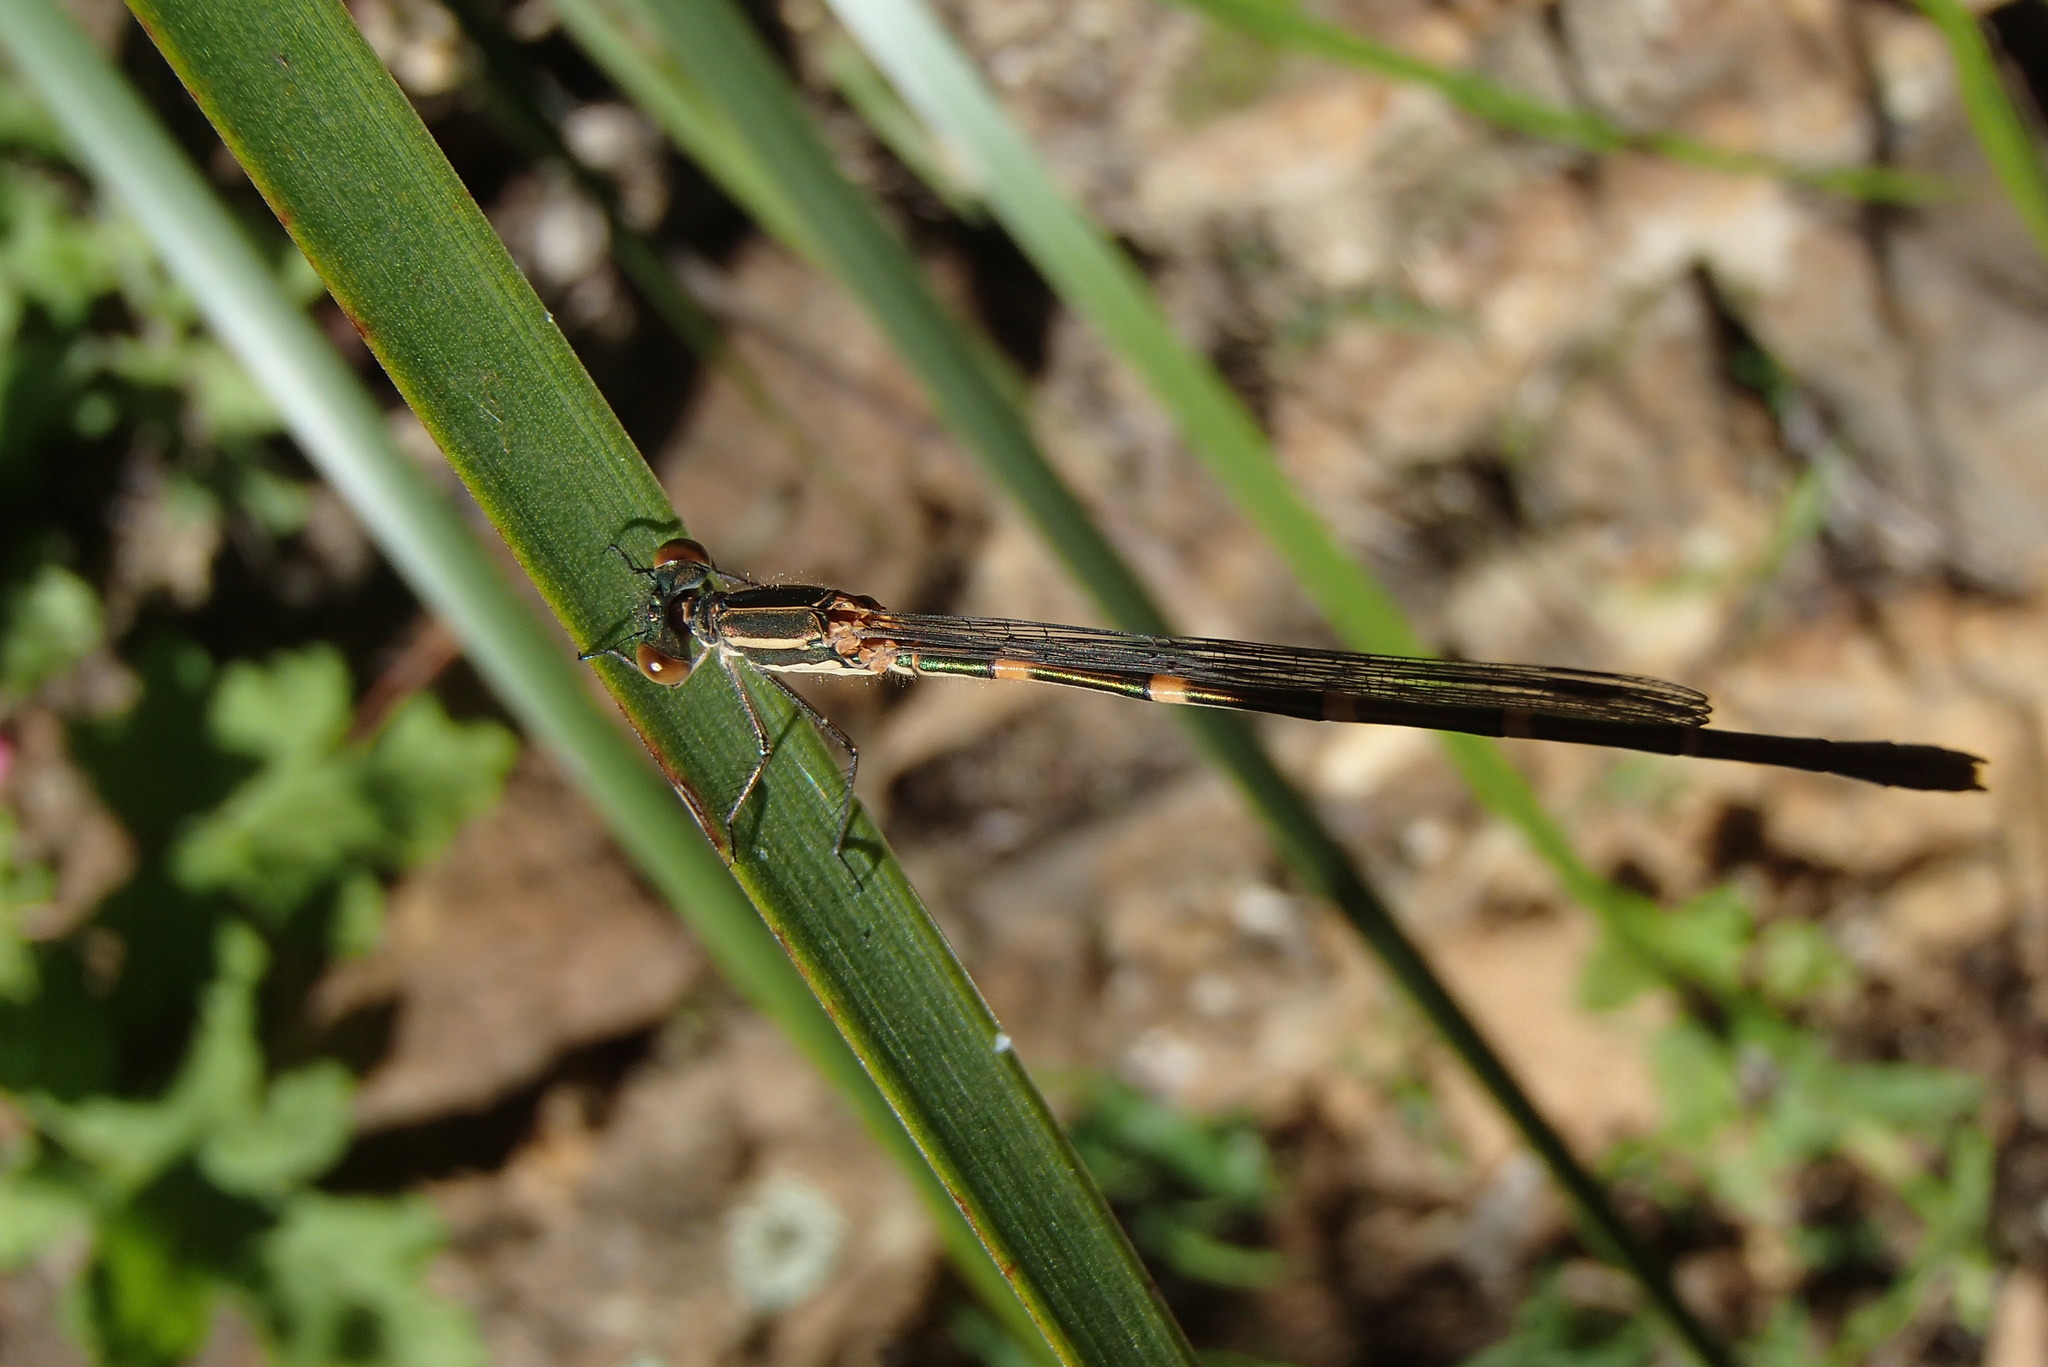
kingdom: Animalia
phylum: Arthropoda
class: Insecta
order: Odonata
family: Lestidae
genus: Austrolestes
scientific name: Austrolestes leda
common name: Wandering ringtail
